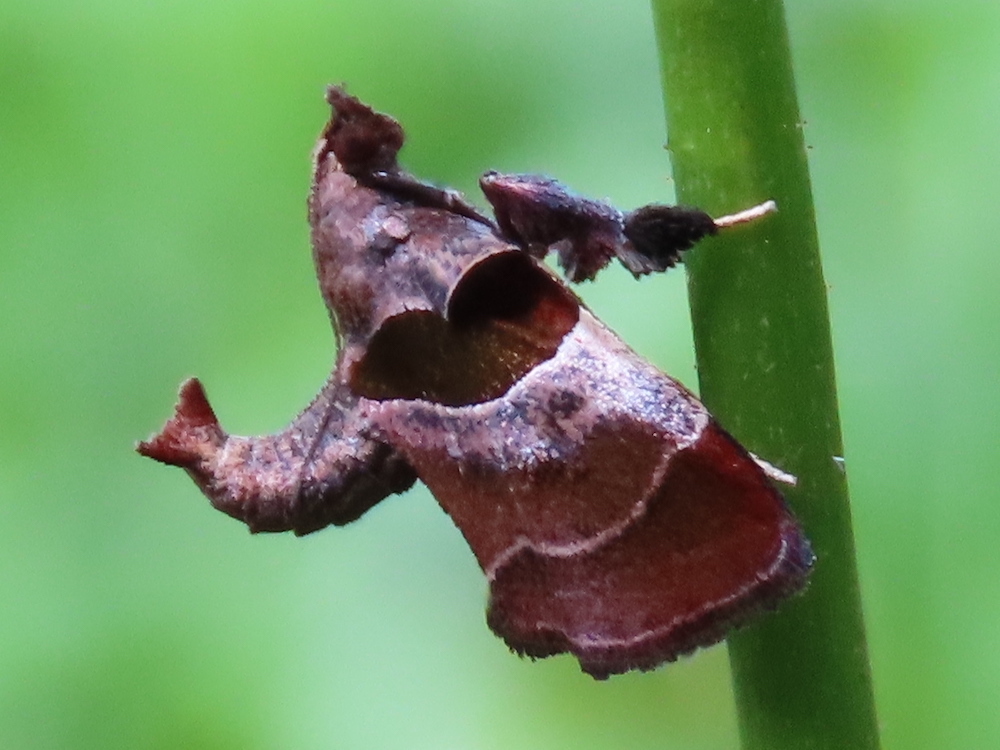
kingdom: Animalia
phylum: Arthropoda
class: Insecta
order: Lepidoptera
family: Pyralidae
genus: Tosale
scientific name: Tosale oviplagalis
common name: Dimorphic tosale moth
